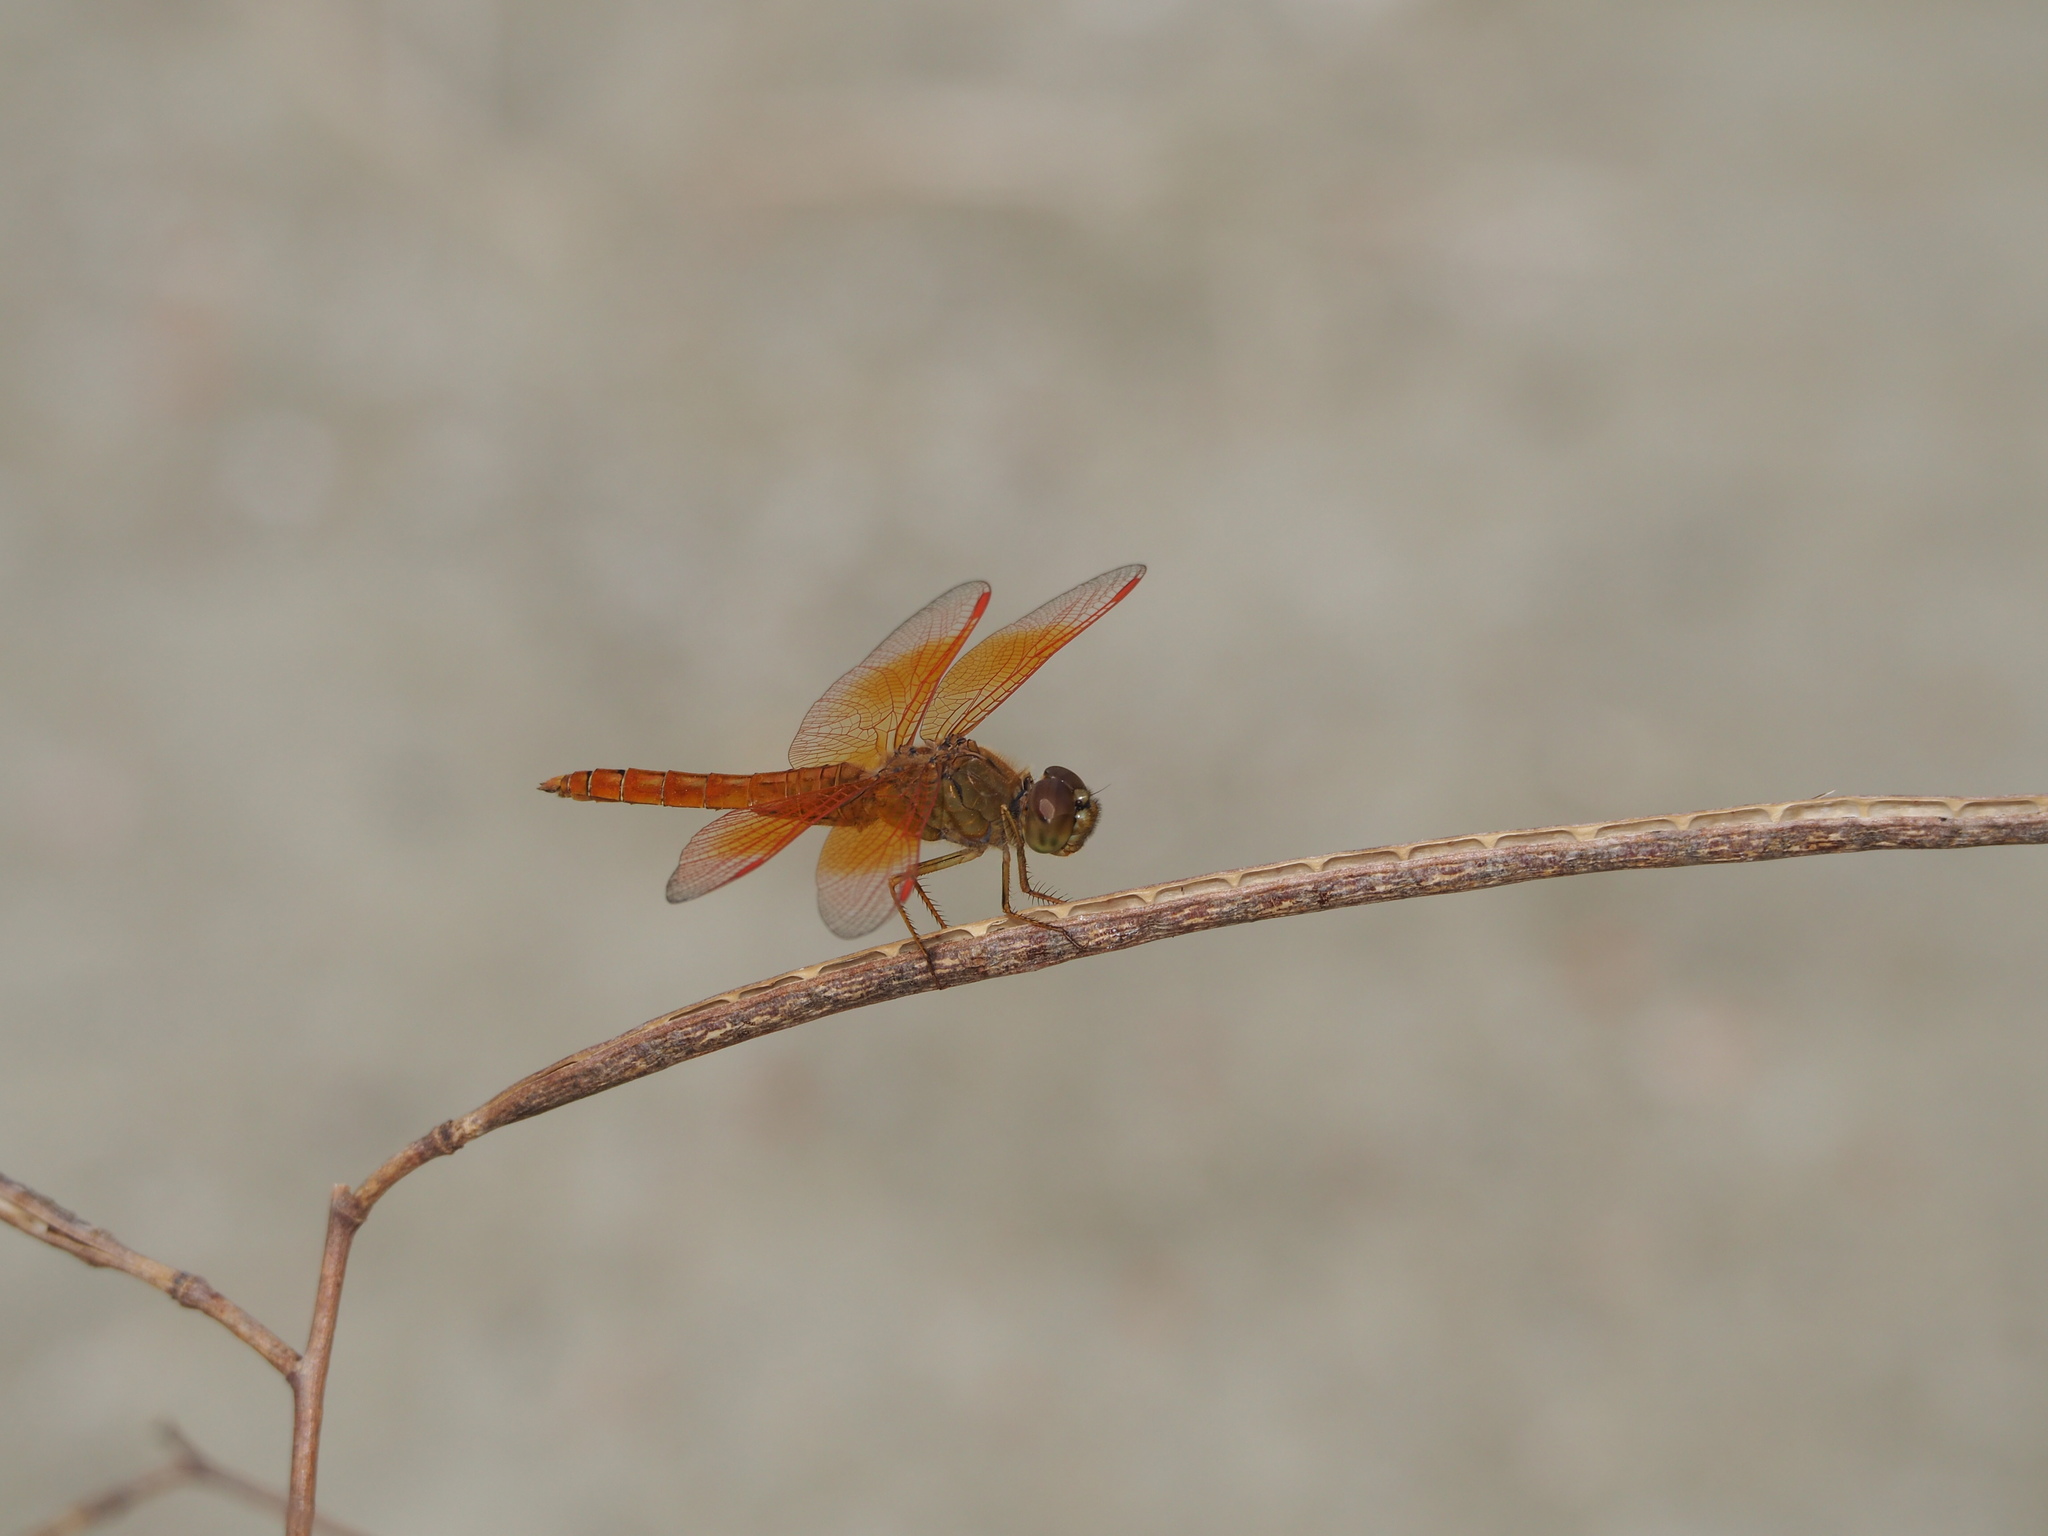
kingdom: Animalia
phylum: Arthropoda
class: Insecta
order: Odonata
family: Libellulidae
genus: Brachythemis
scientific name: Brachythemis contaminata
